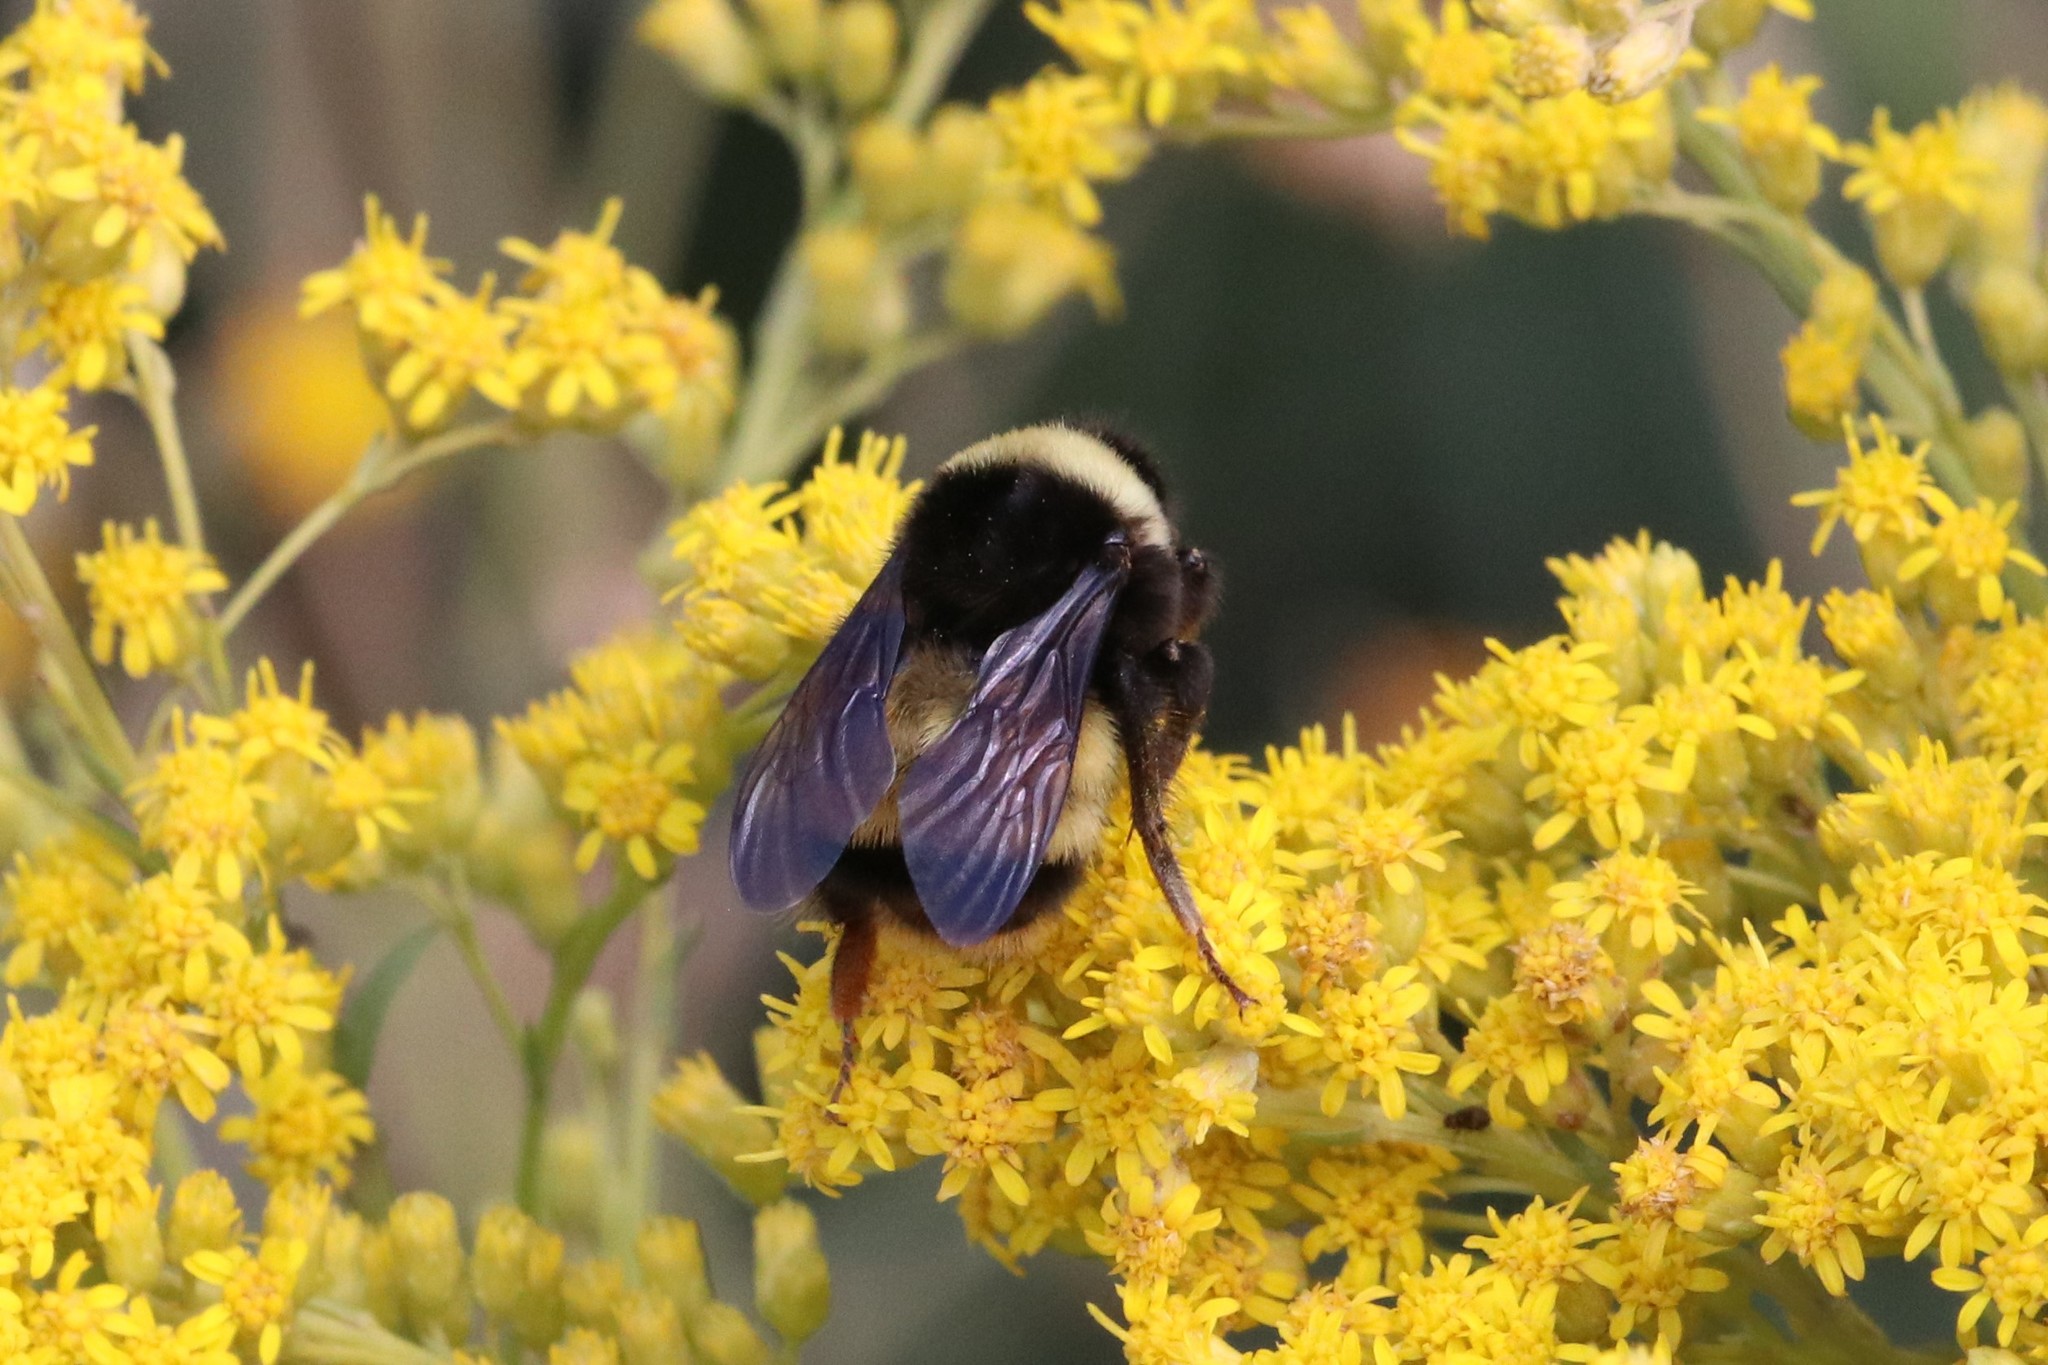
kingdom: Animalia
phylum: Arthropoda
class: Insecta
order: Hymenoptera
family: Apidae
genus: Bombus
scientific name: Bombus terricola
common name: Yellow-banded bumble bee
